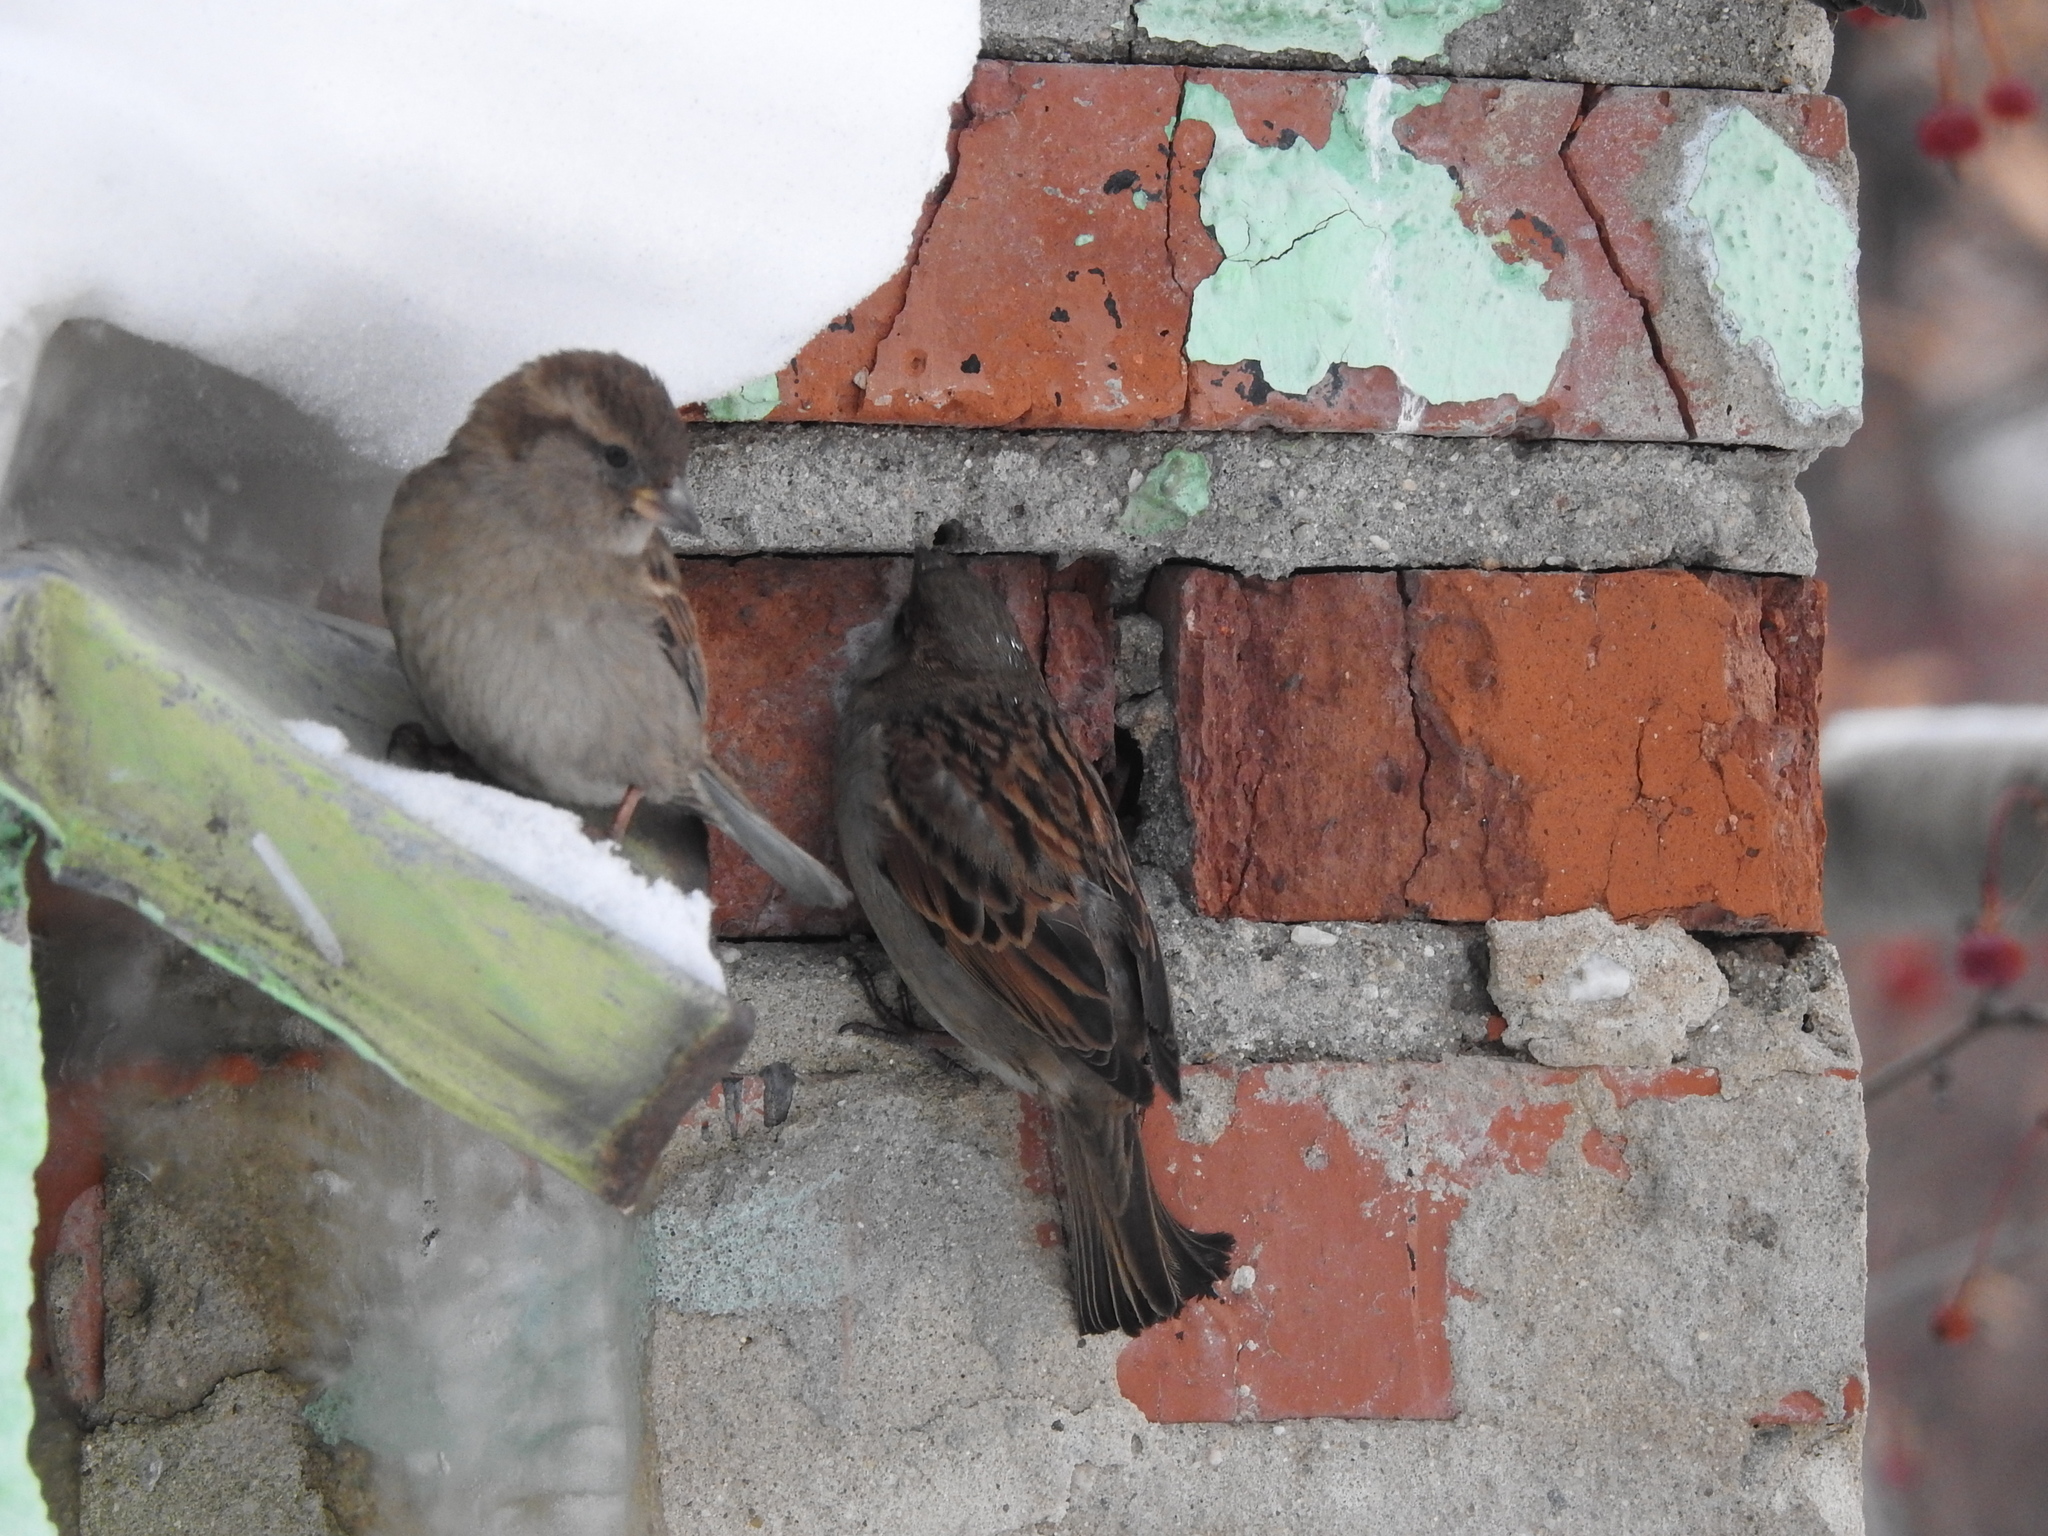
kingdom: Animalia
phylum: Chordata
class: Aves
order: Passeriformes
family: Passeridae
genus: Passer
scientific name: Passer domesticus
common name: House sparrow
